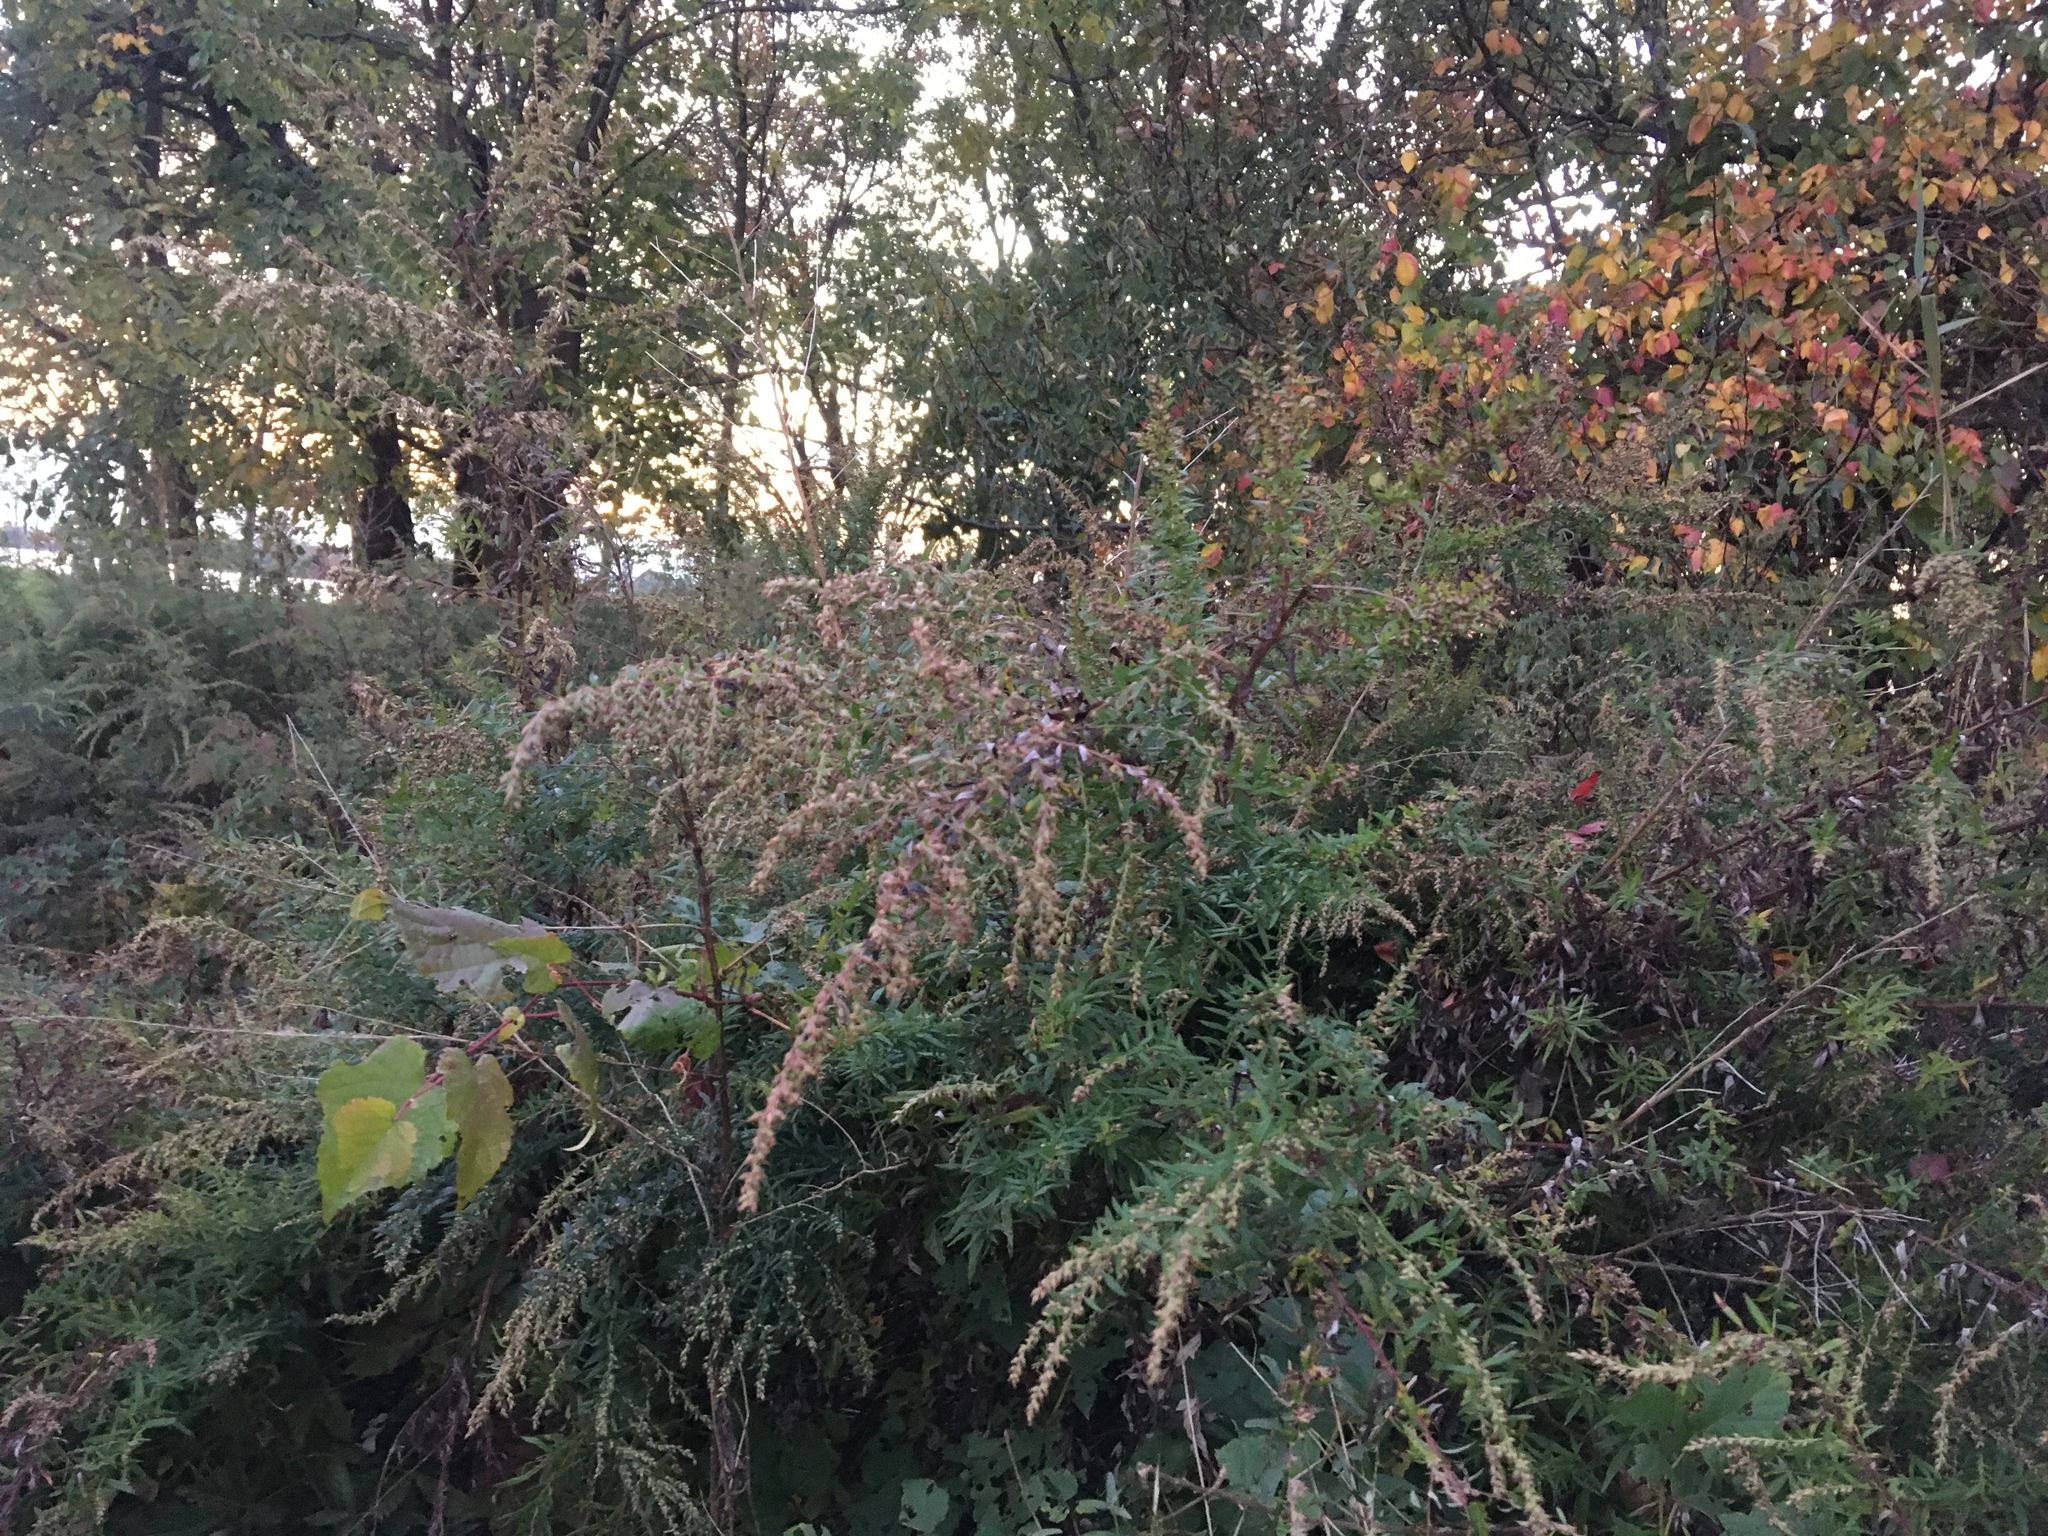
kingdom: Plantae
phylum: Tracheophyta
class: Magnoliopsida
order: Asterales
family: Asteraceae
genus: Artemisia
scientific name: Artemisia vulgaris
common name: Mugwort
